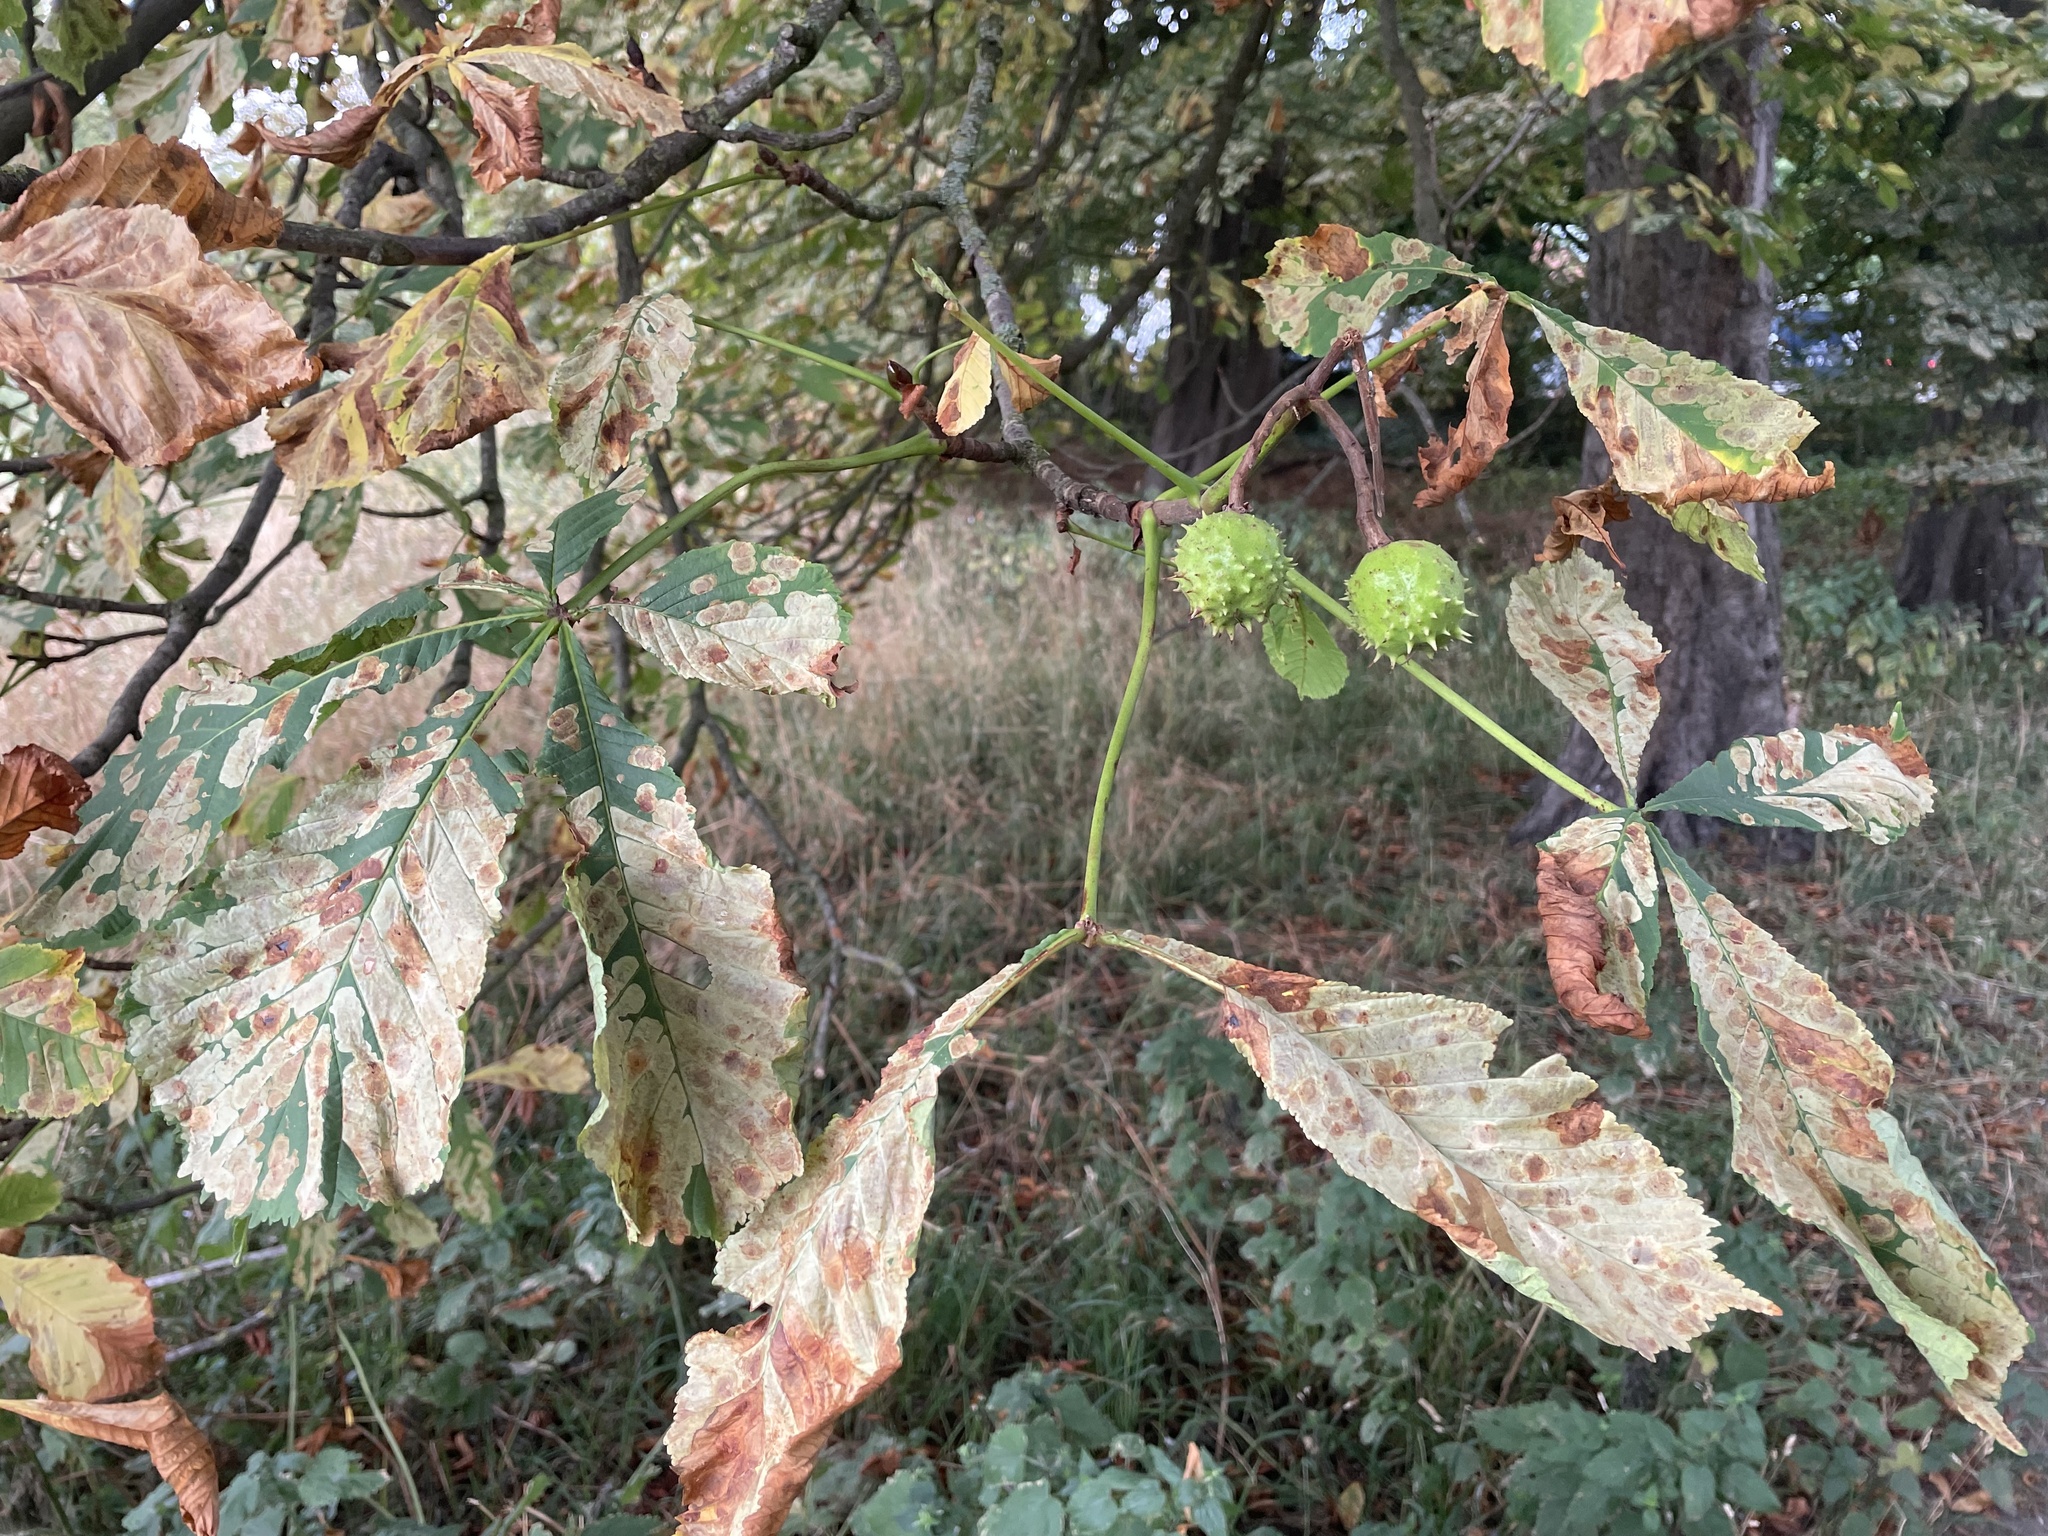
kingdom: Plantae
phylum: Tracheophyta
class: Magnoliopsida
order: Sapindales
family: Sapindaceae
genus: Aesculus
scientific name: Aesculus hippocastanum
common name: Horse-chestnut
